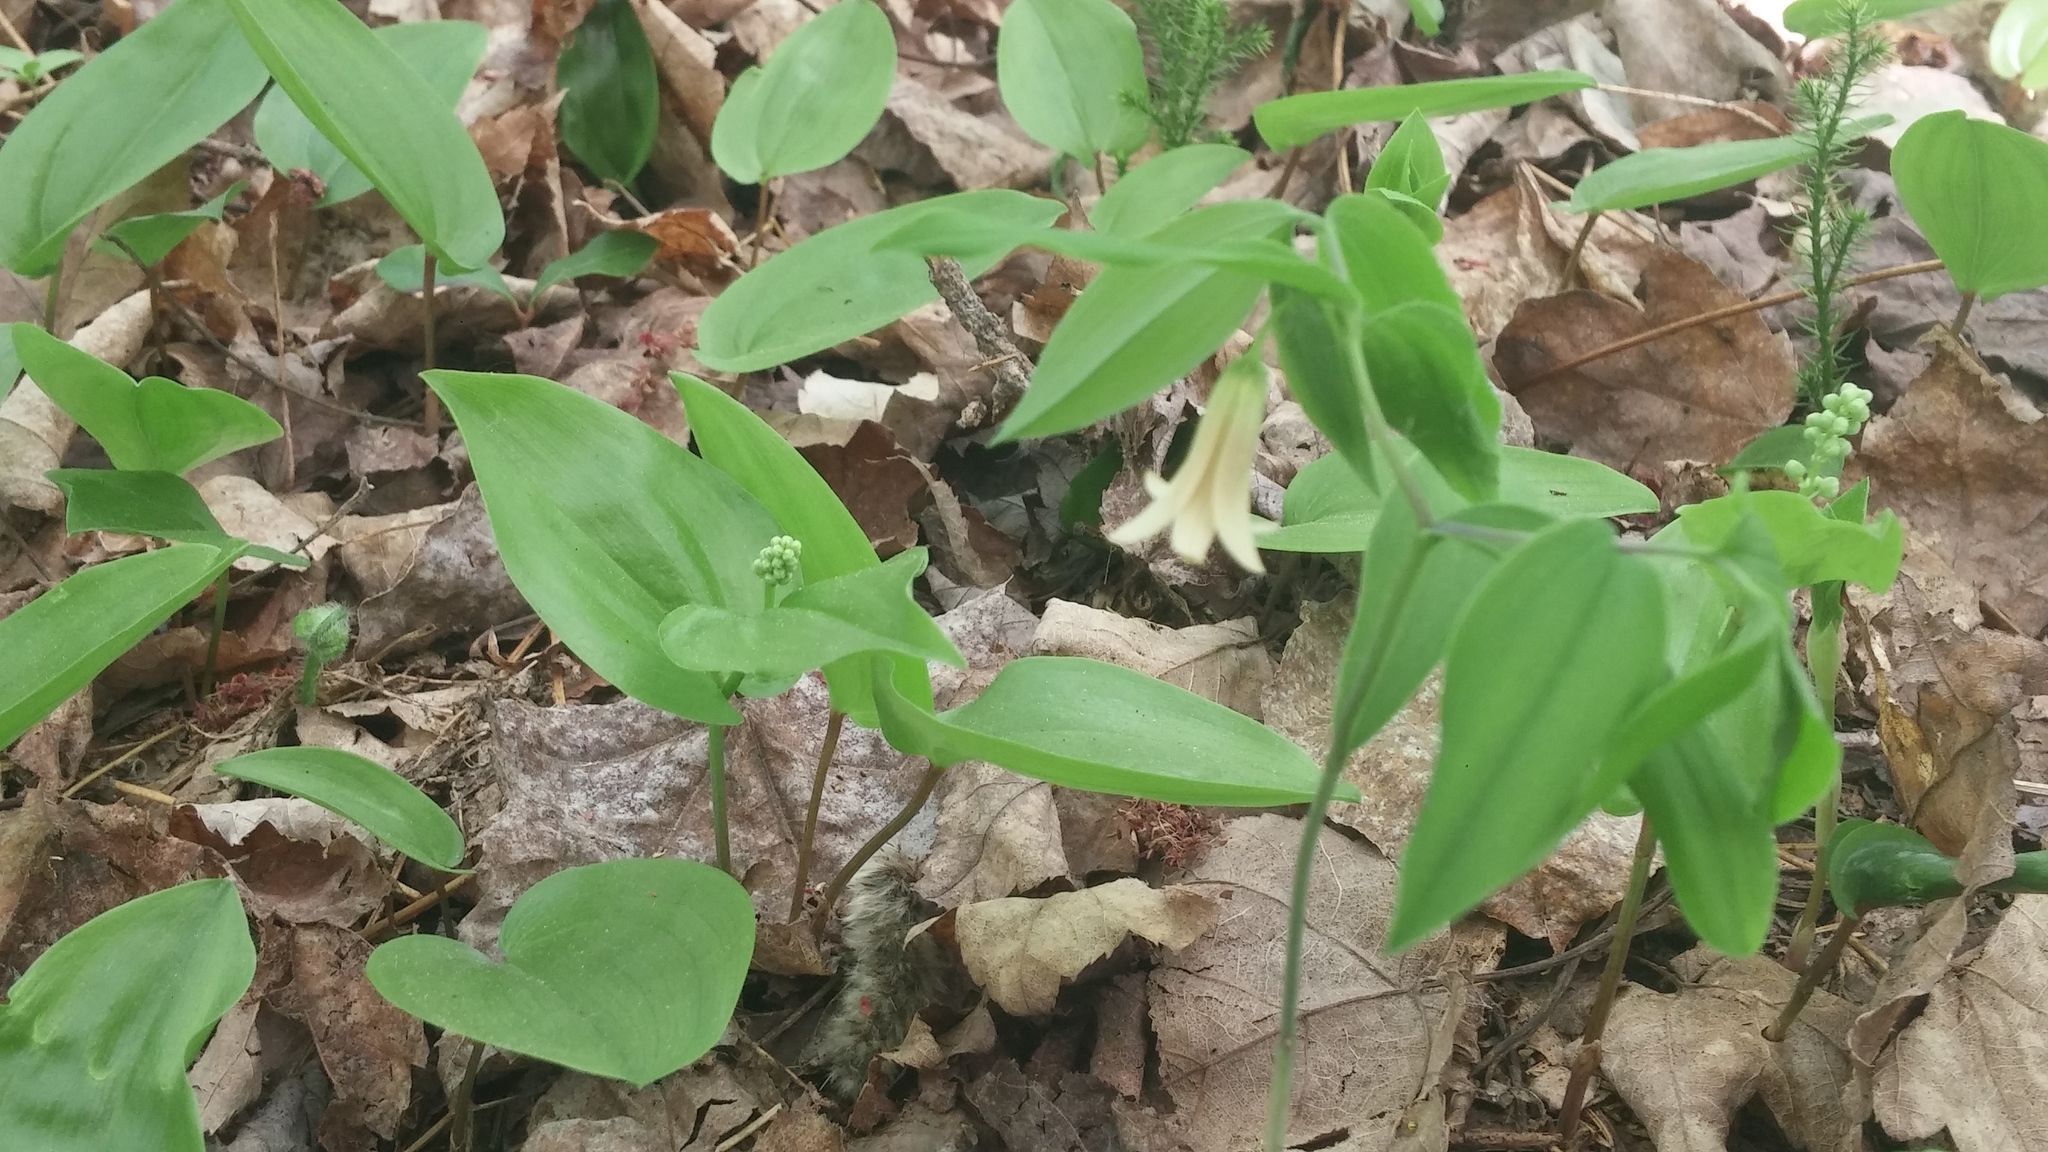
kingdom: Plantae
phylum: Tracheophyta
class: Liliopsida
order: Liliales
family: Colchicaceae
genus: Uvularia
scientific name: Uvularia sessilifolia
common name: Straw-lily
